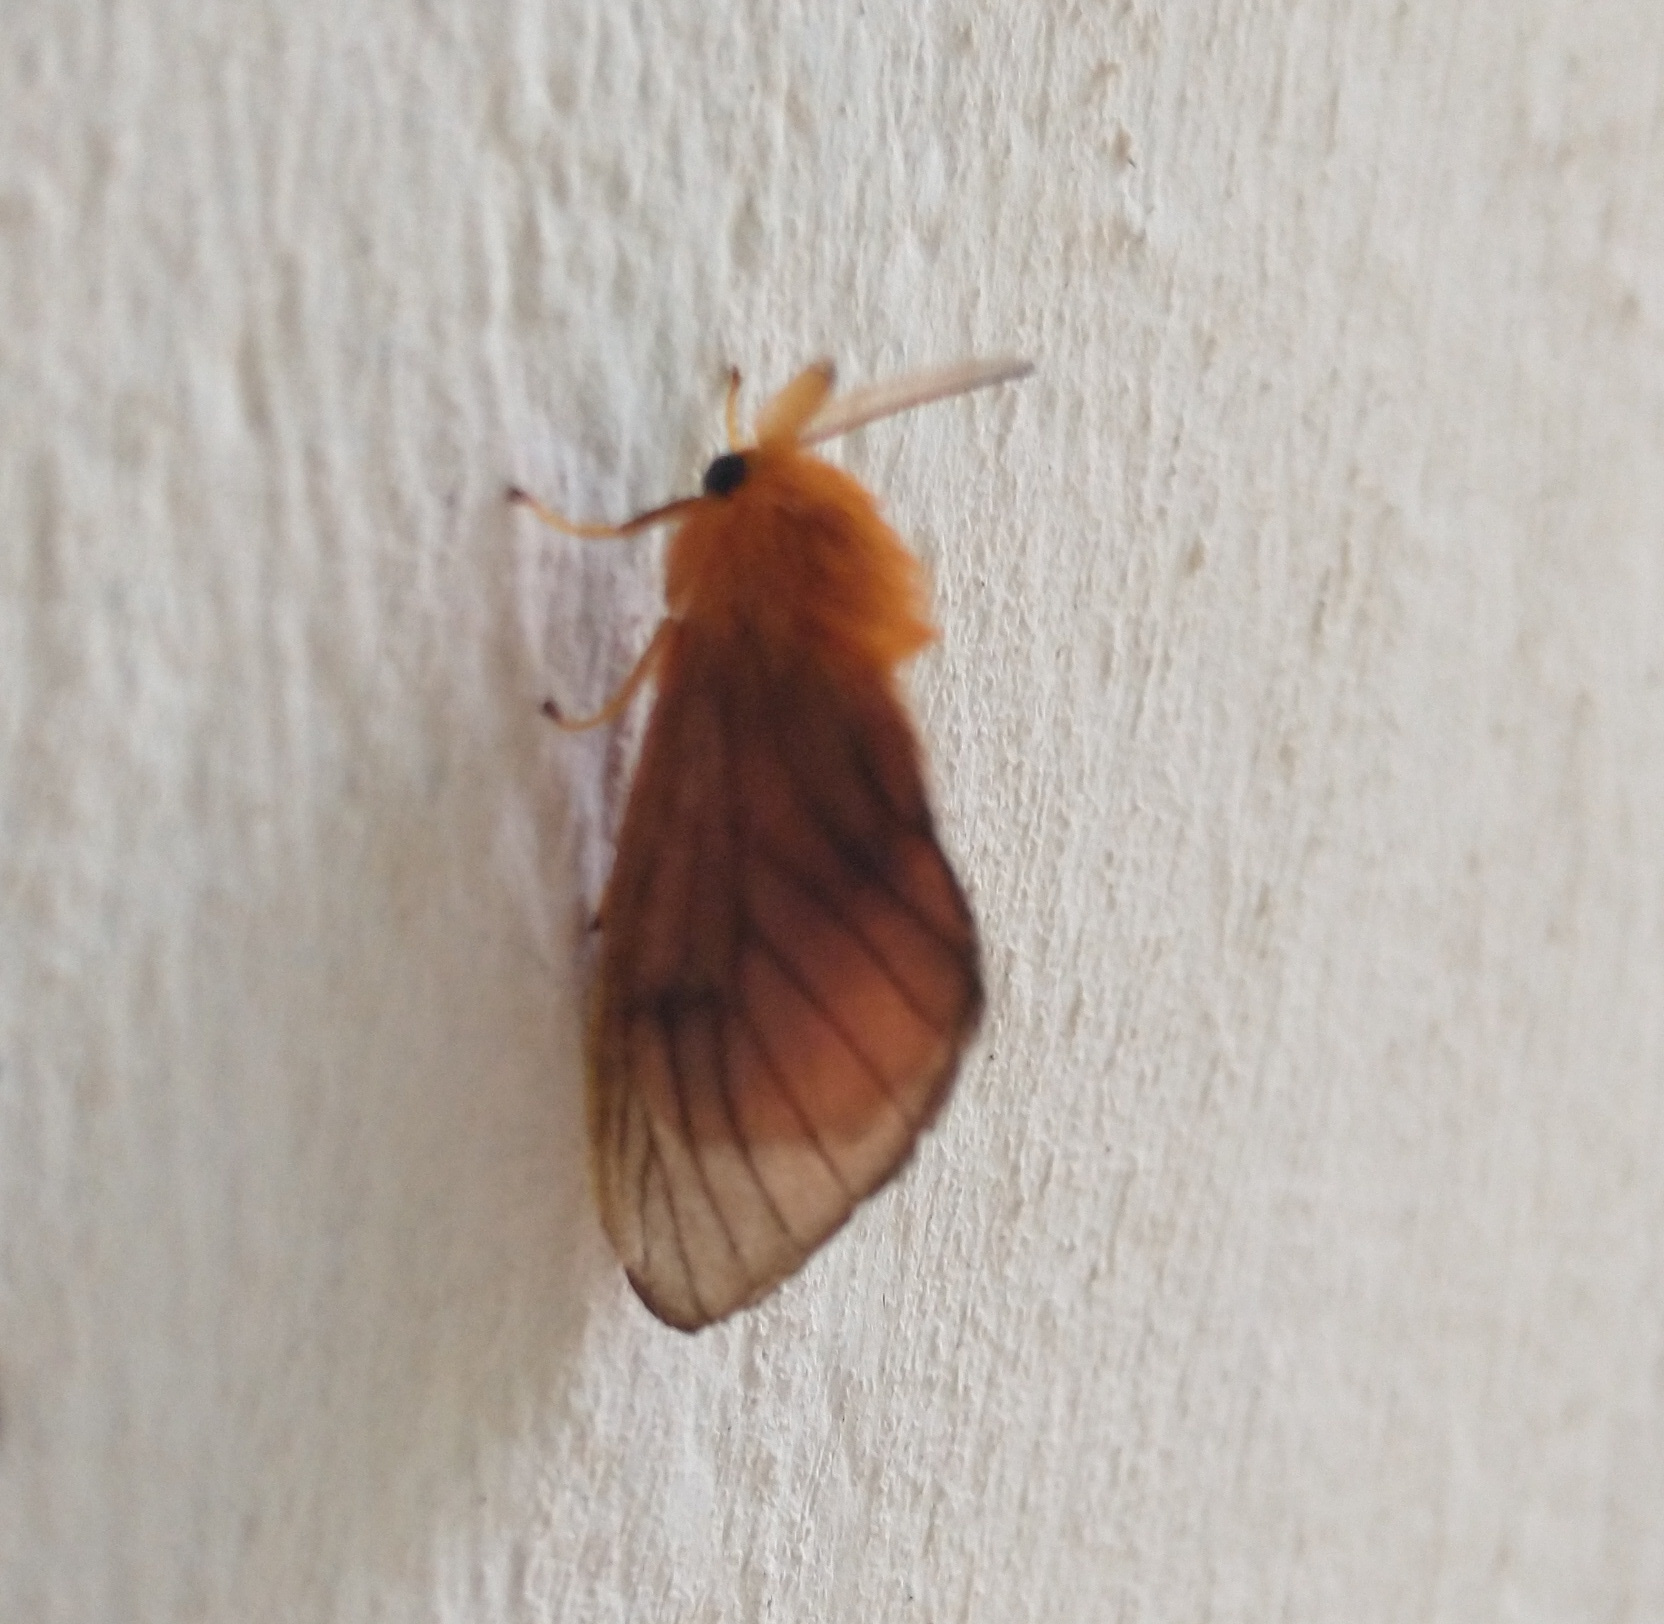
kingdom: Animalia
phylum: Arthropoda
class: Insecta
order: Lepidoptera
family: Megalopygidae
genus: Thoscora
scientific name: Thoscora acca
